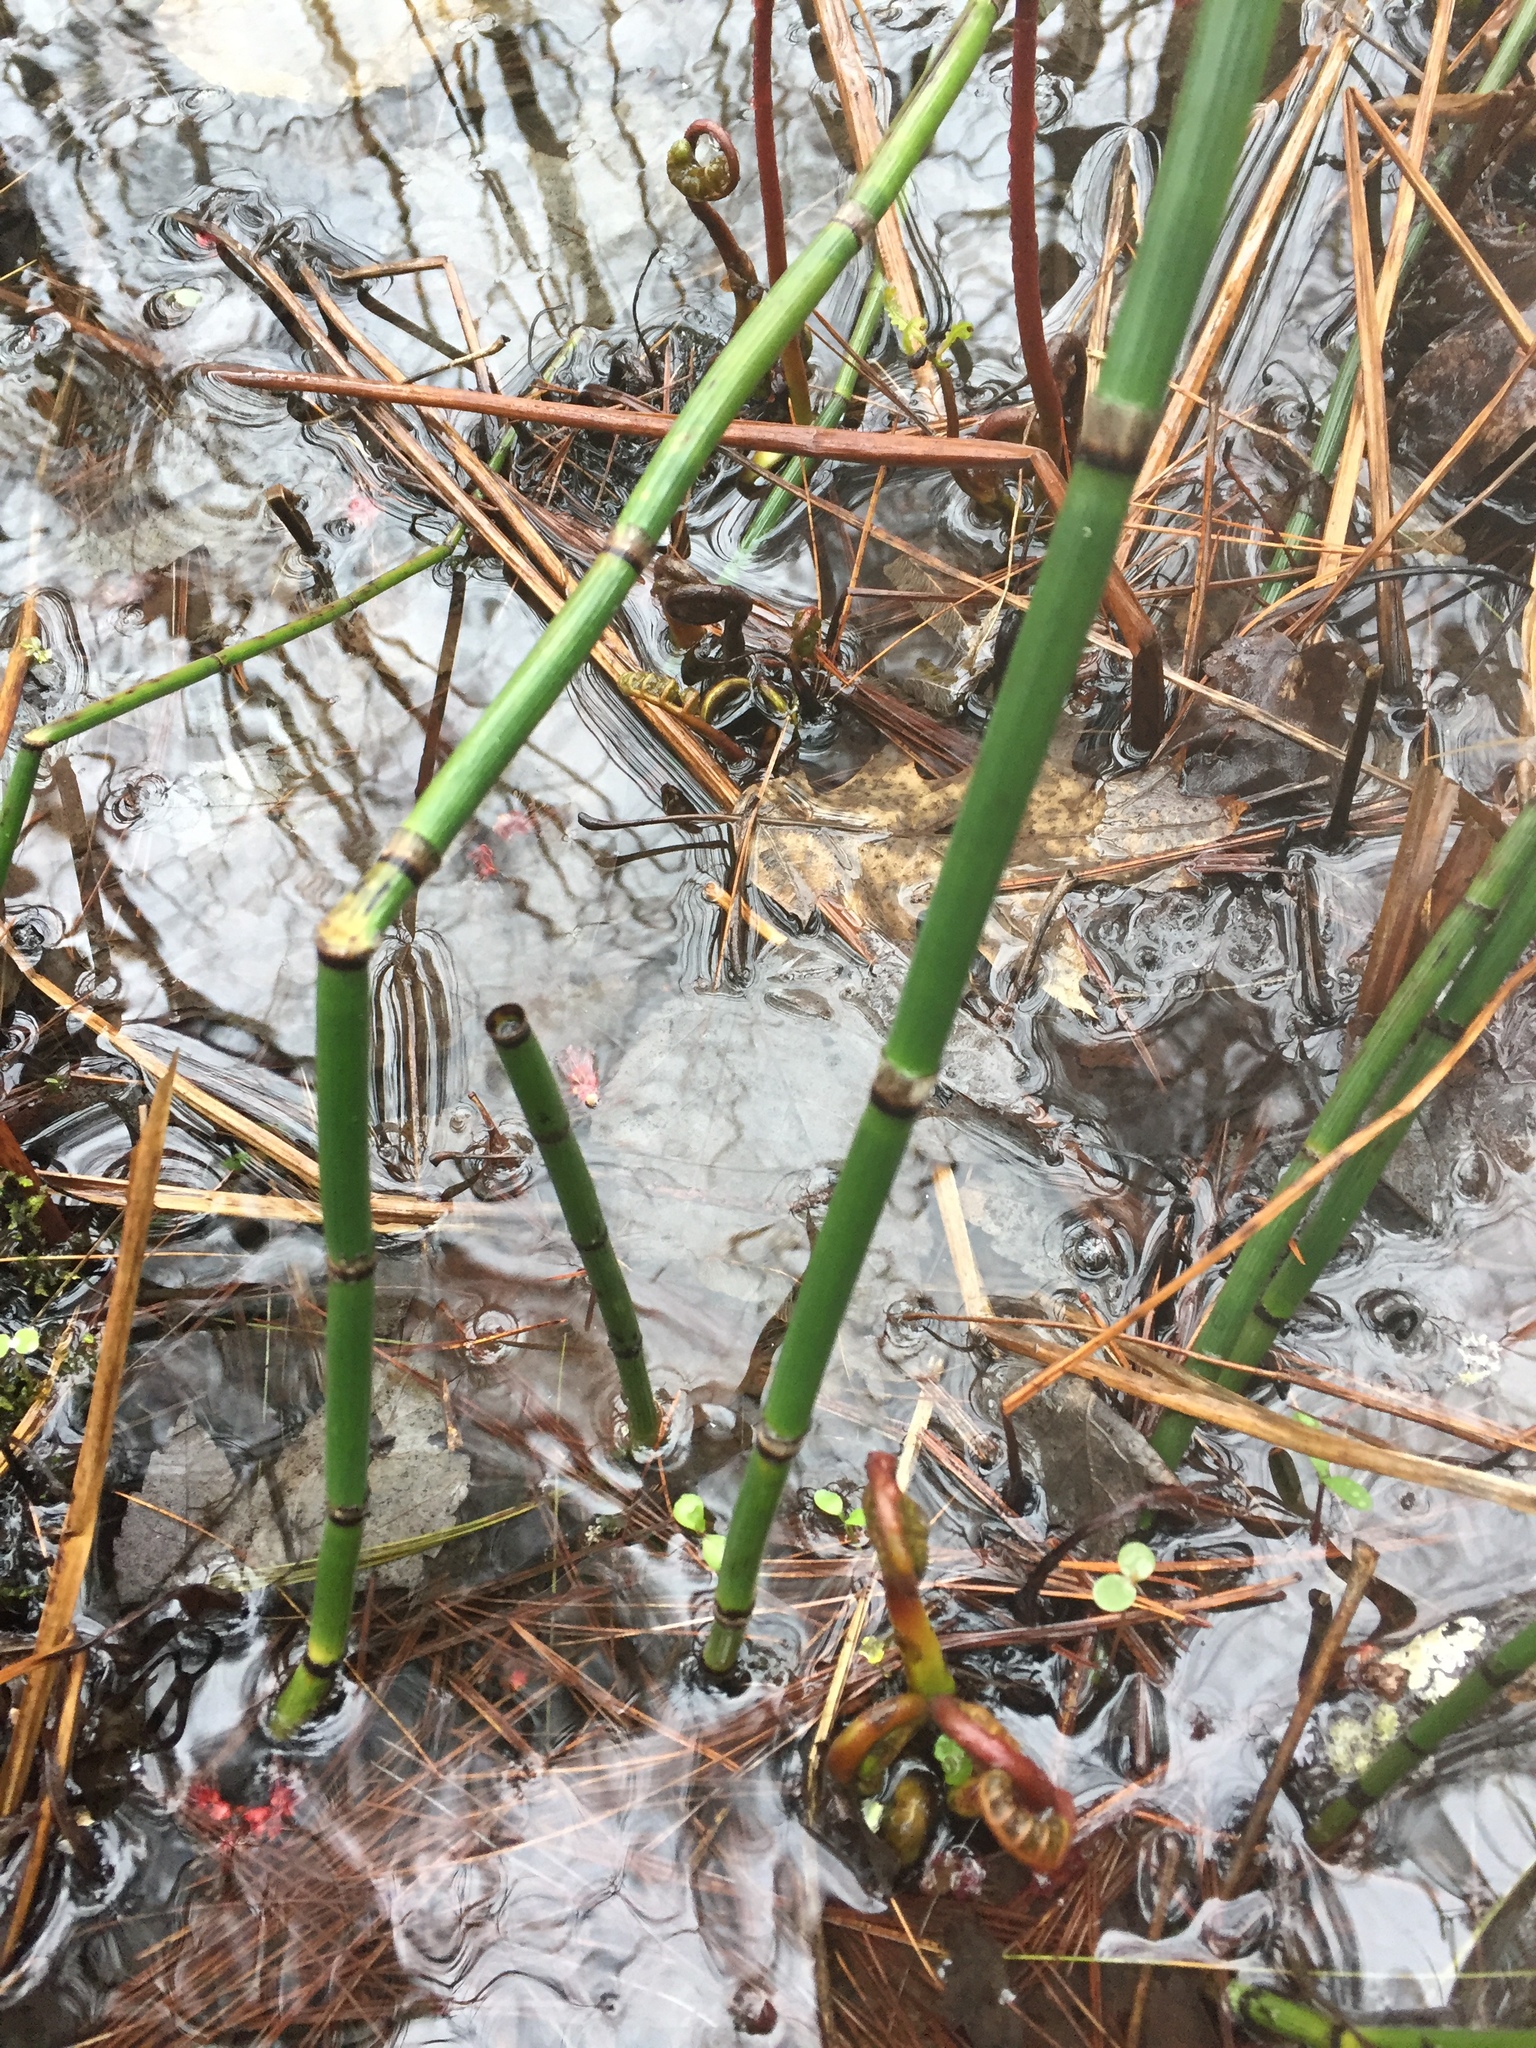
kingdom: Plantae
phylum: Tracheophyta
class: Polypodiopsida
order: Equisetales
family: Equisetaceae
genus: Equisetum
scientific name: Equisetum hyemale
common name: Rough horsetail
